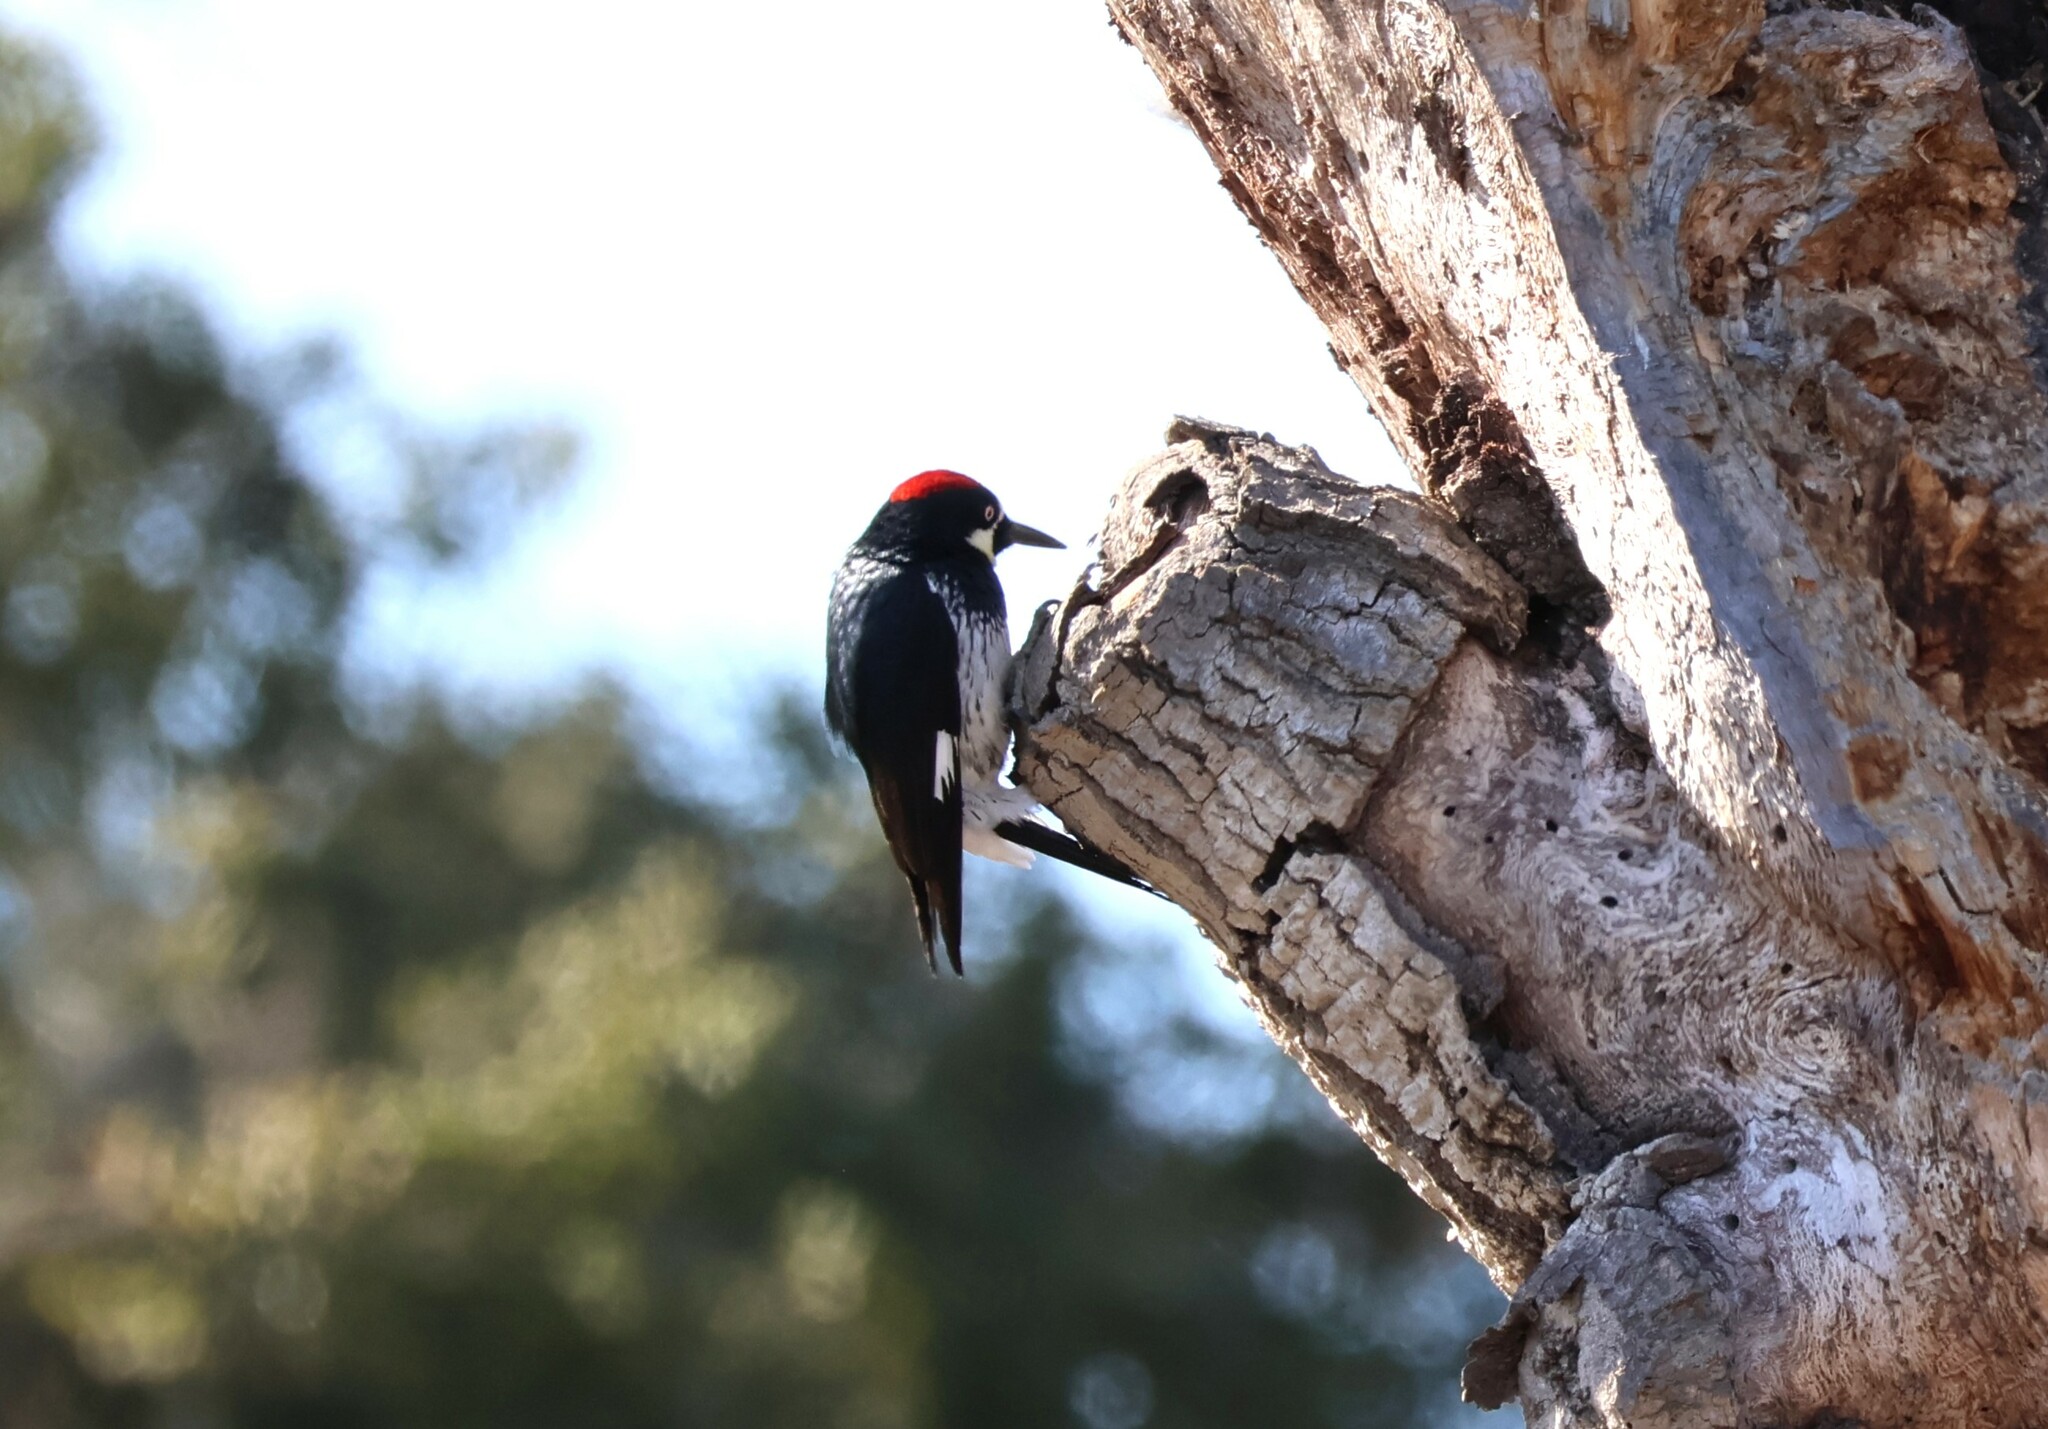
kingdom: Animalia
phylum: Chordata
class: Aves
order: Piciformes
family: Picidae
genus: Melanerpes
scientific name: Melanerpes formicivorus
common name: Acorn woodpecker
